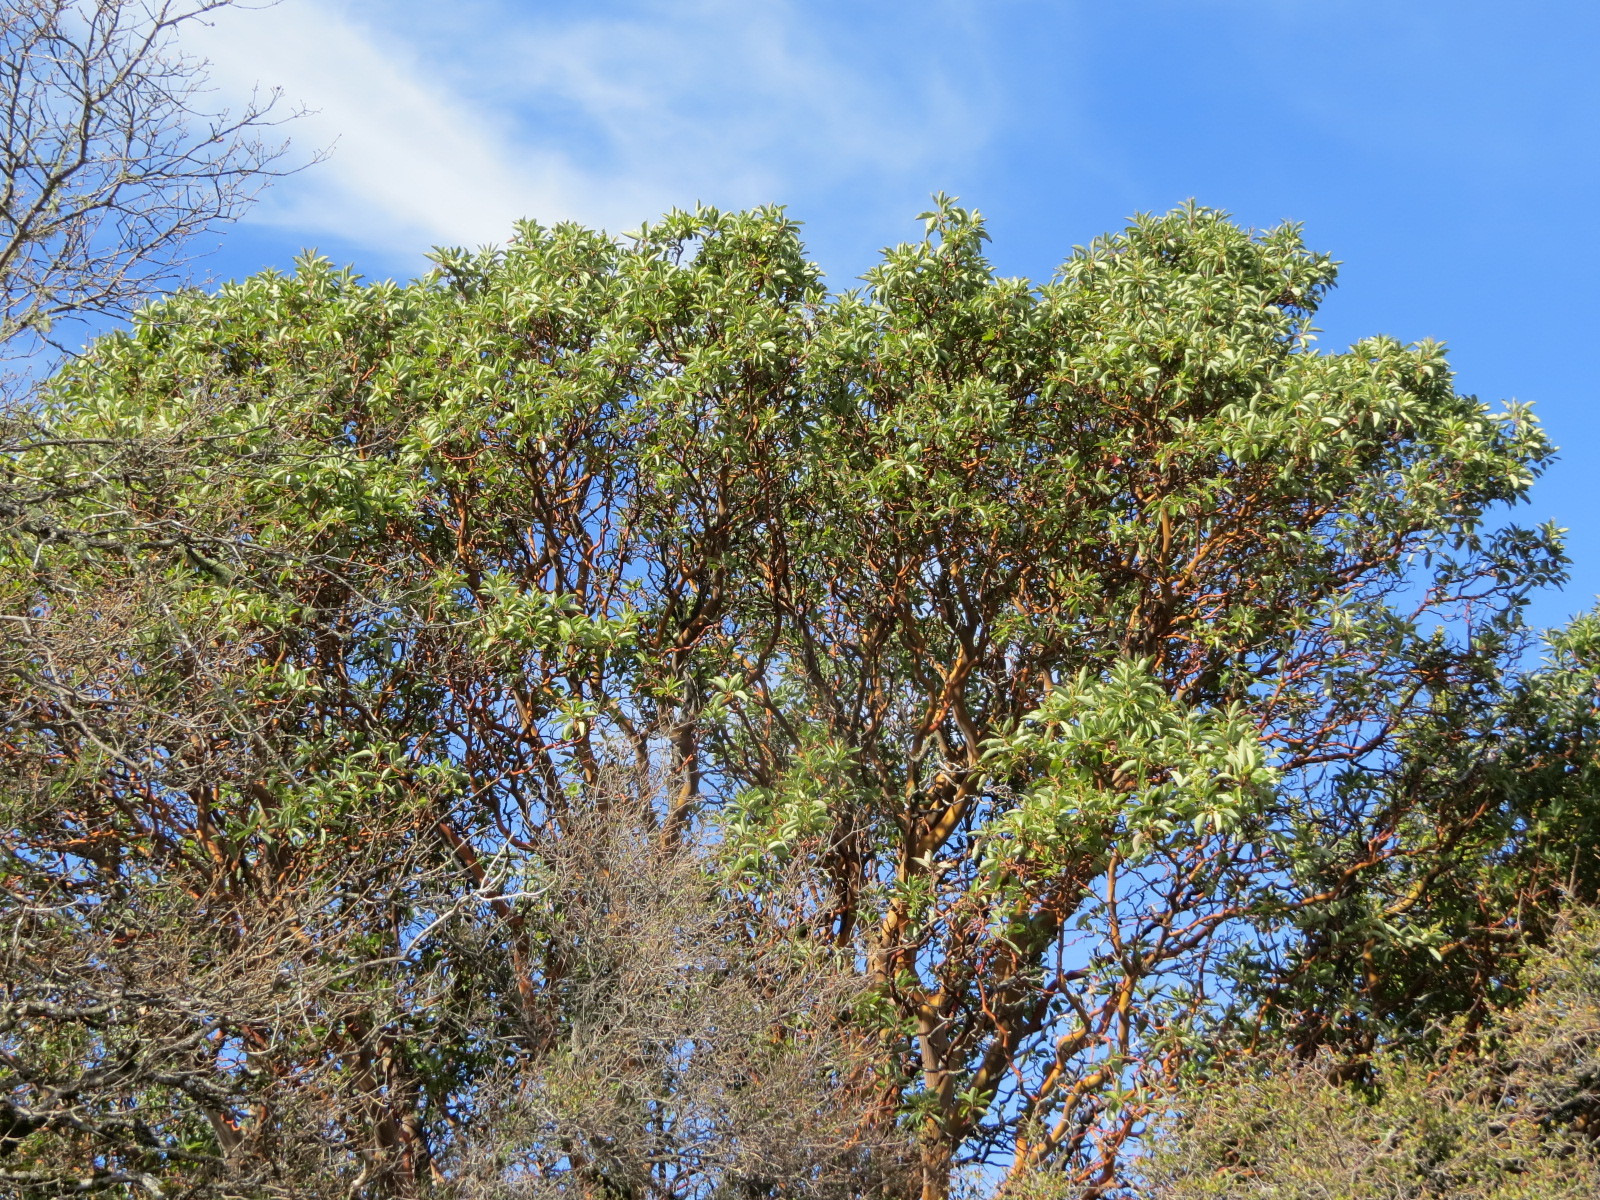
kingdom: Plantae
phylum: Tracheophyta
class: Magnoliopsida
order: Ericales
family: Ericaceae
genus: Arbutus
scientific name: Arbutus menziesii
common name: Pacific madrone
